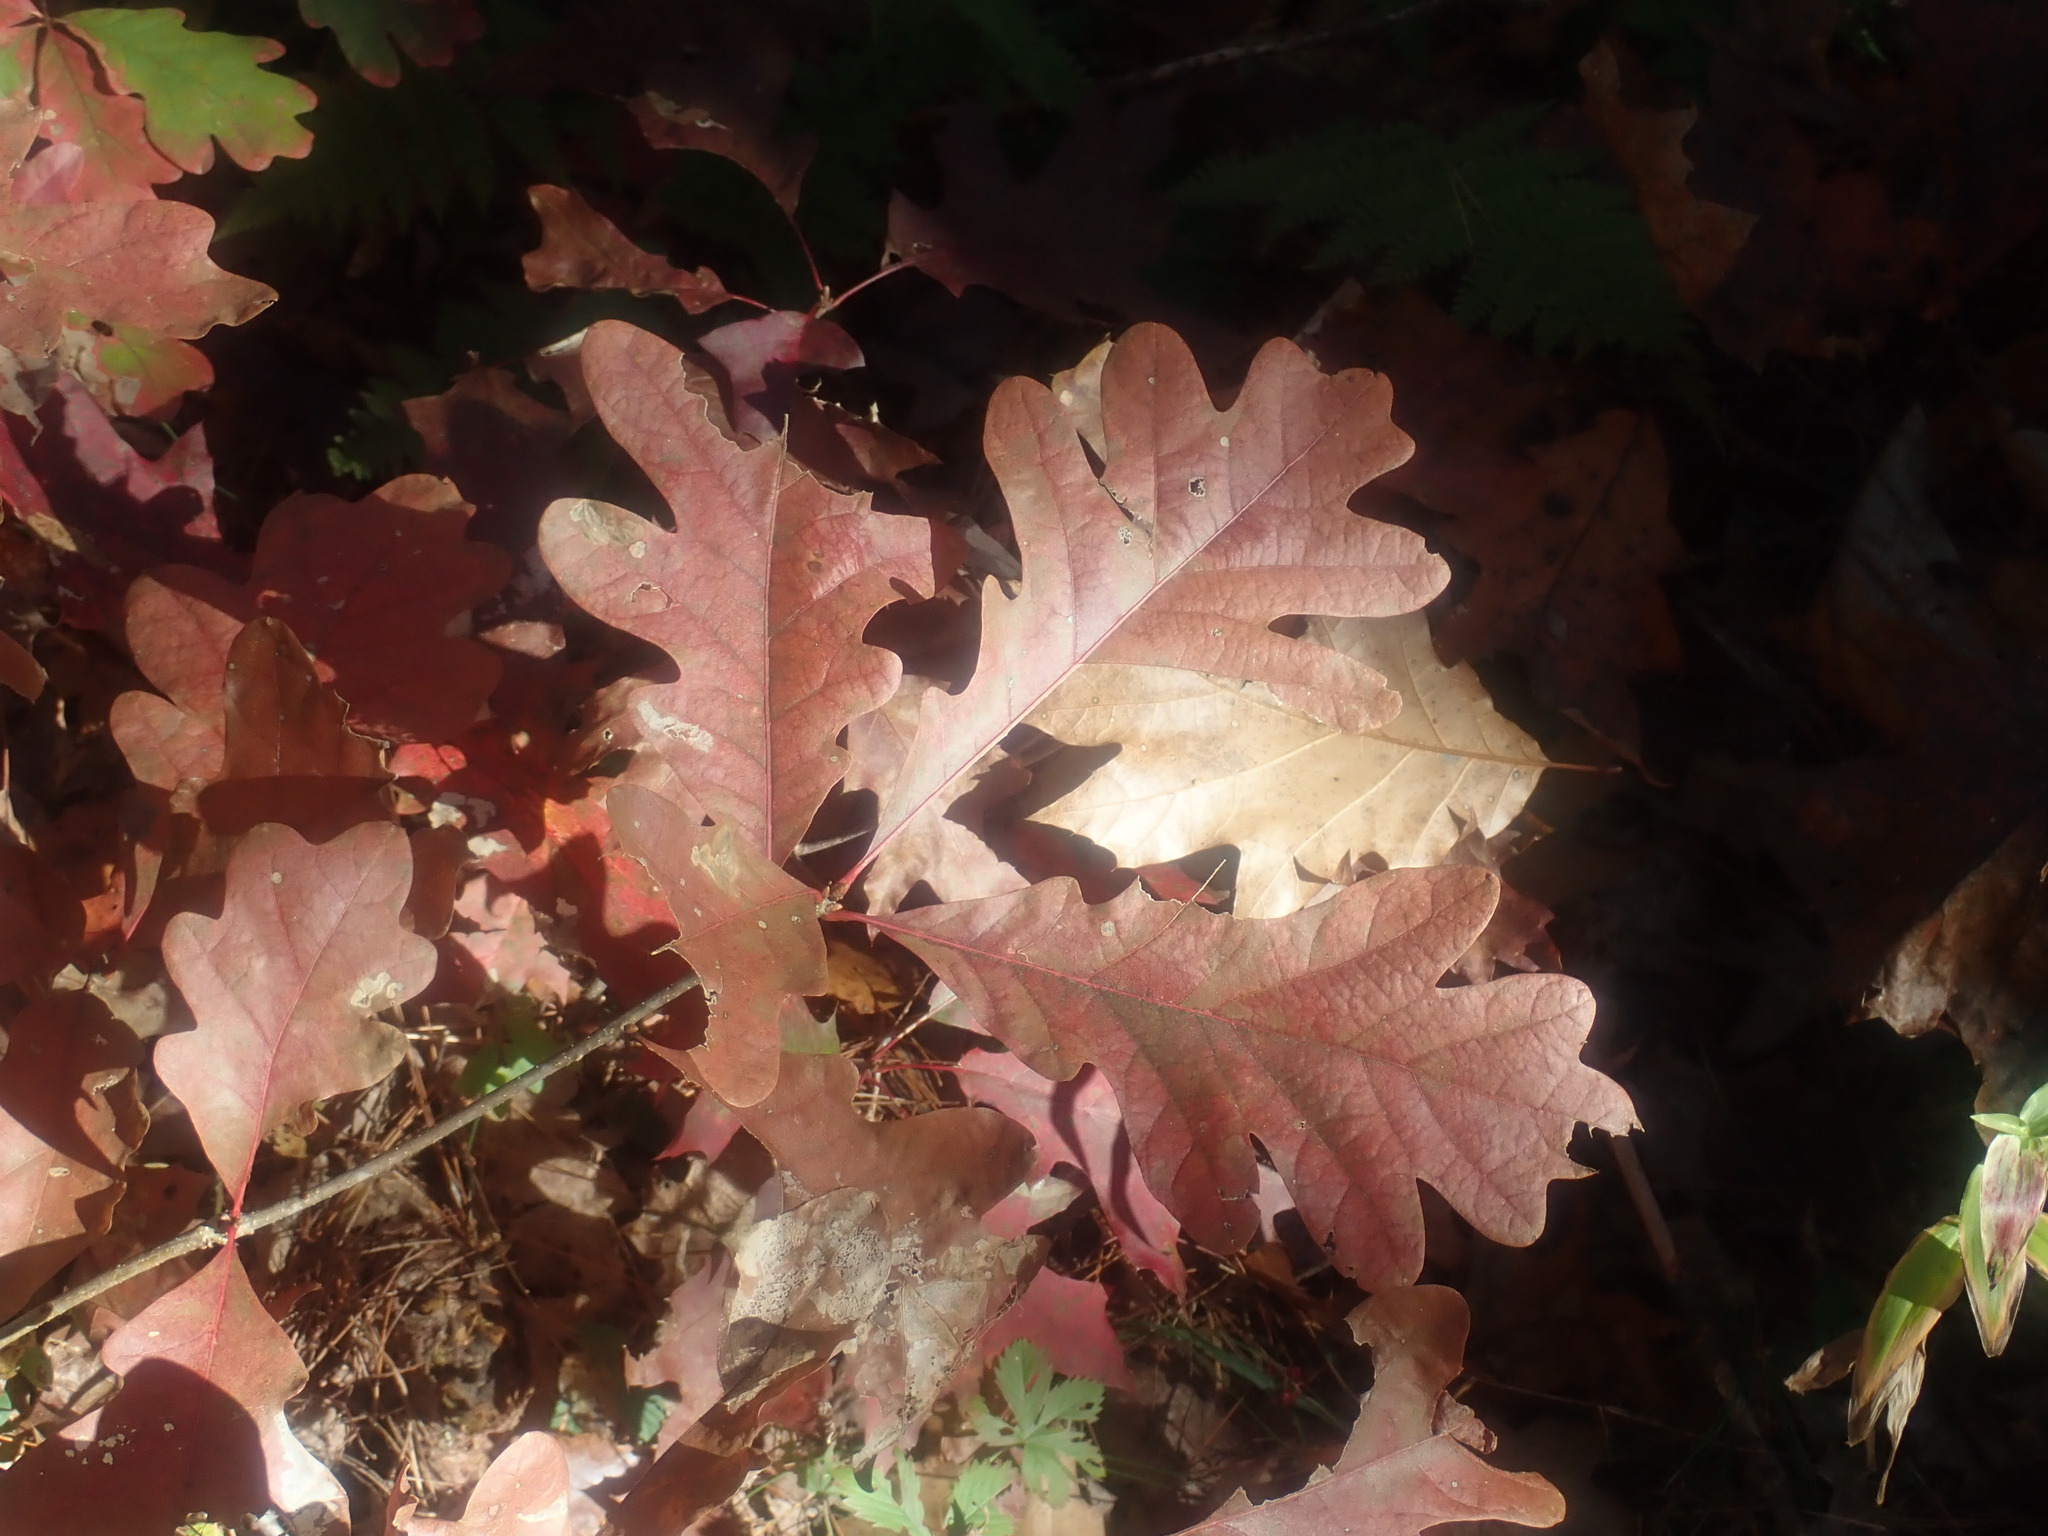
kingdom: Plantae
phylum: Tracheophyta
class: Magnoliopsida
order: Fagales
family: Fagaceae
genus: Quercus
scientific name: Quercus alba
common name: White oak
